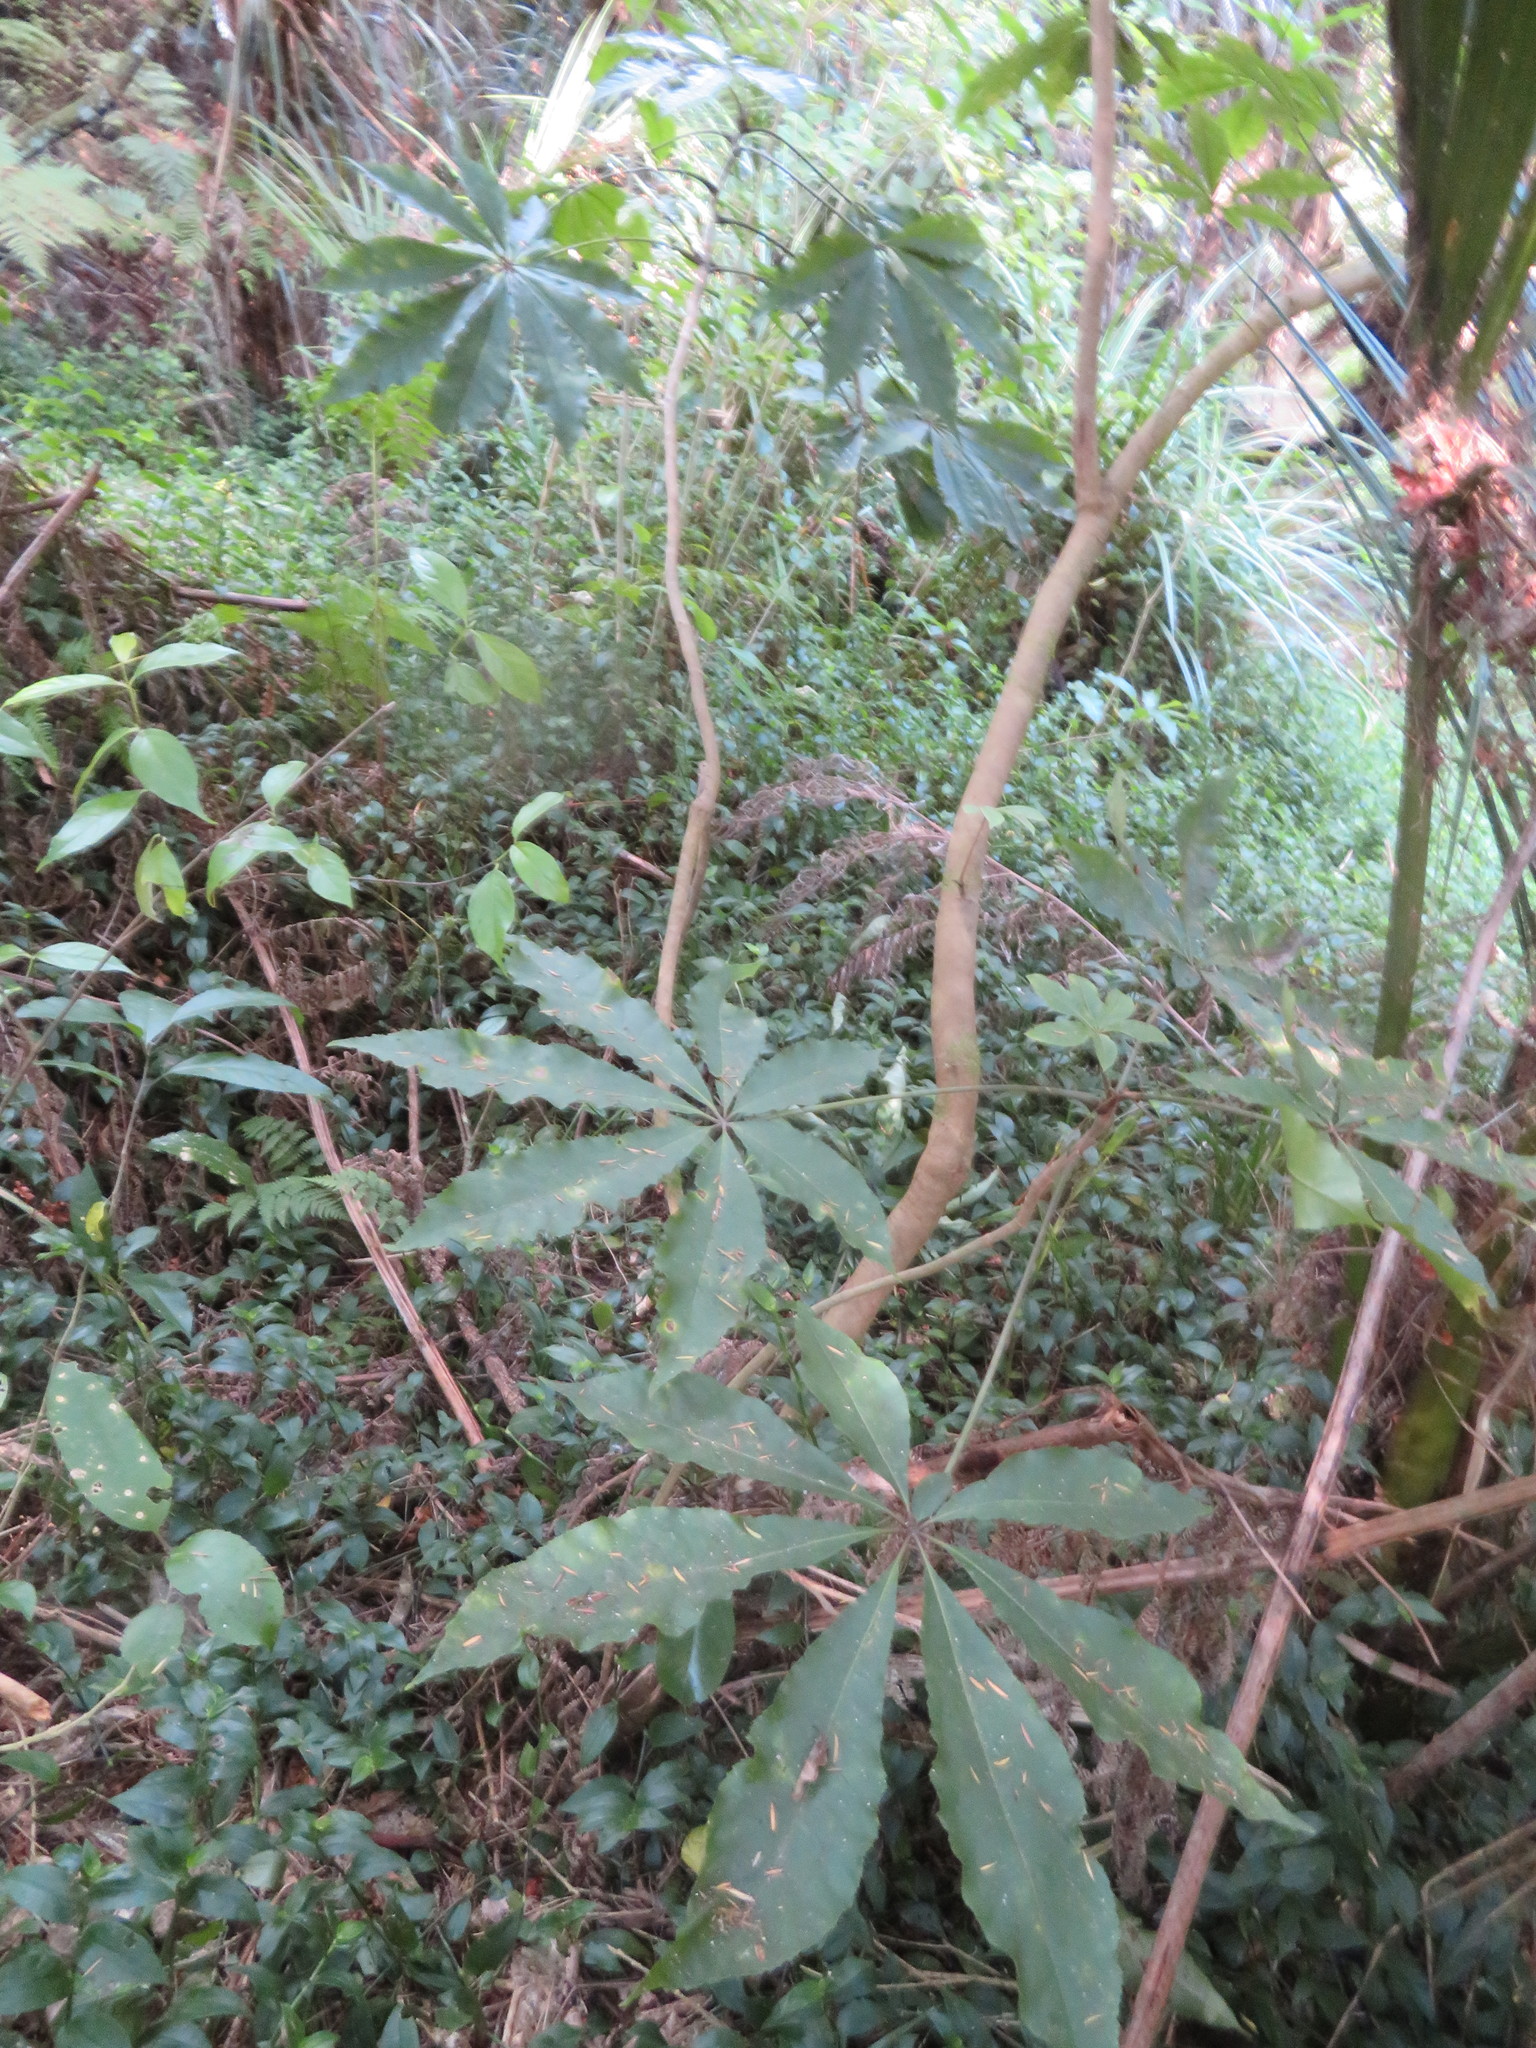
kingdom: Plantae
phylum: Tracheophyta
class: Magnoliopsida
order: Apiales
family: Araliaceae
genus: Schefflera
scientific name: Schefflera digitata
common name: Pate
